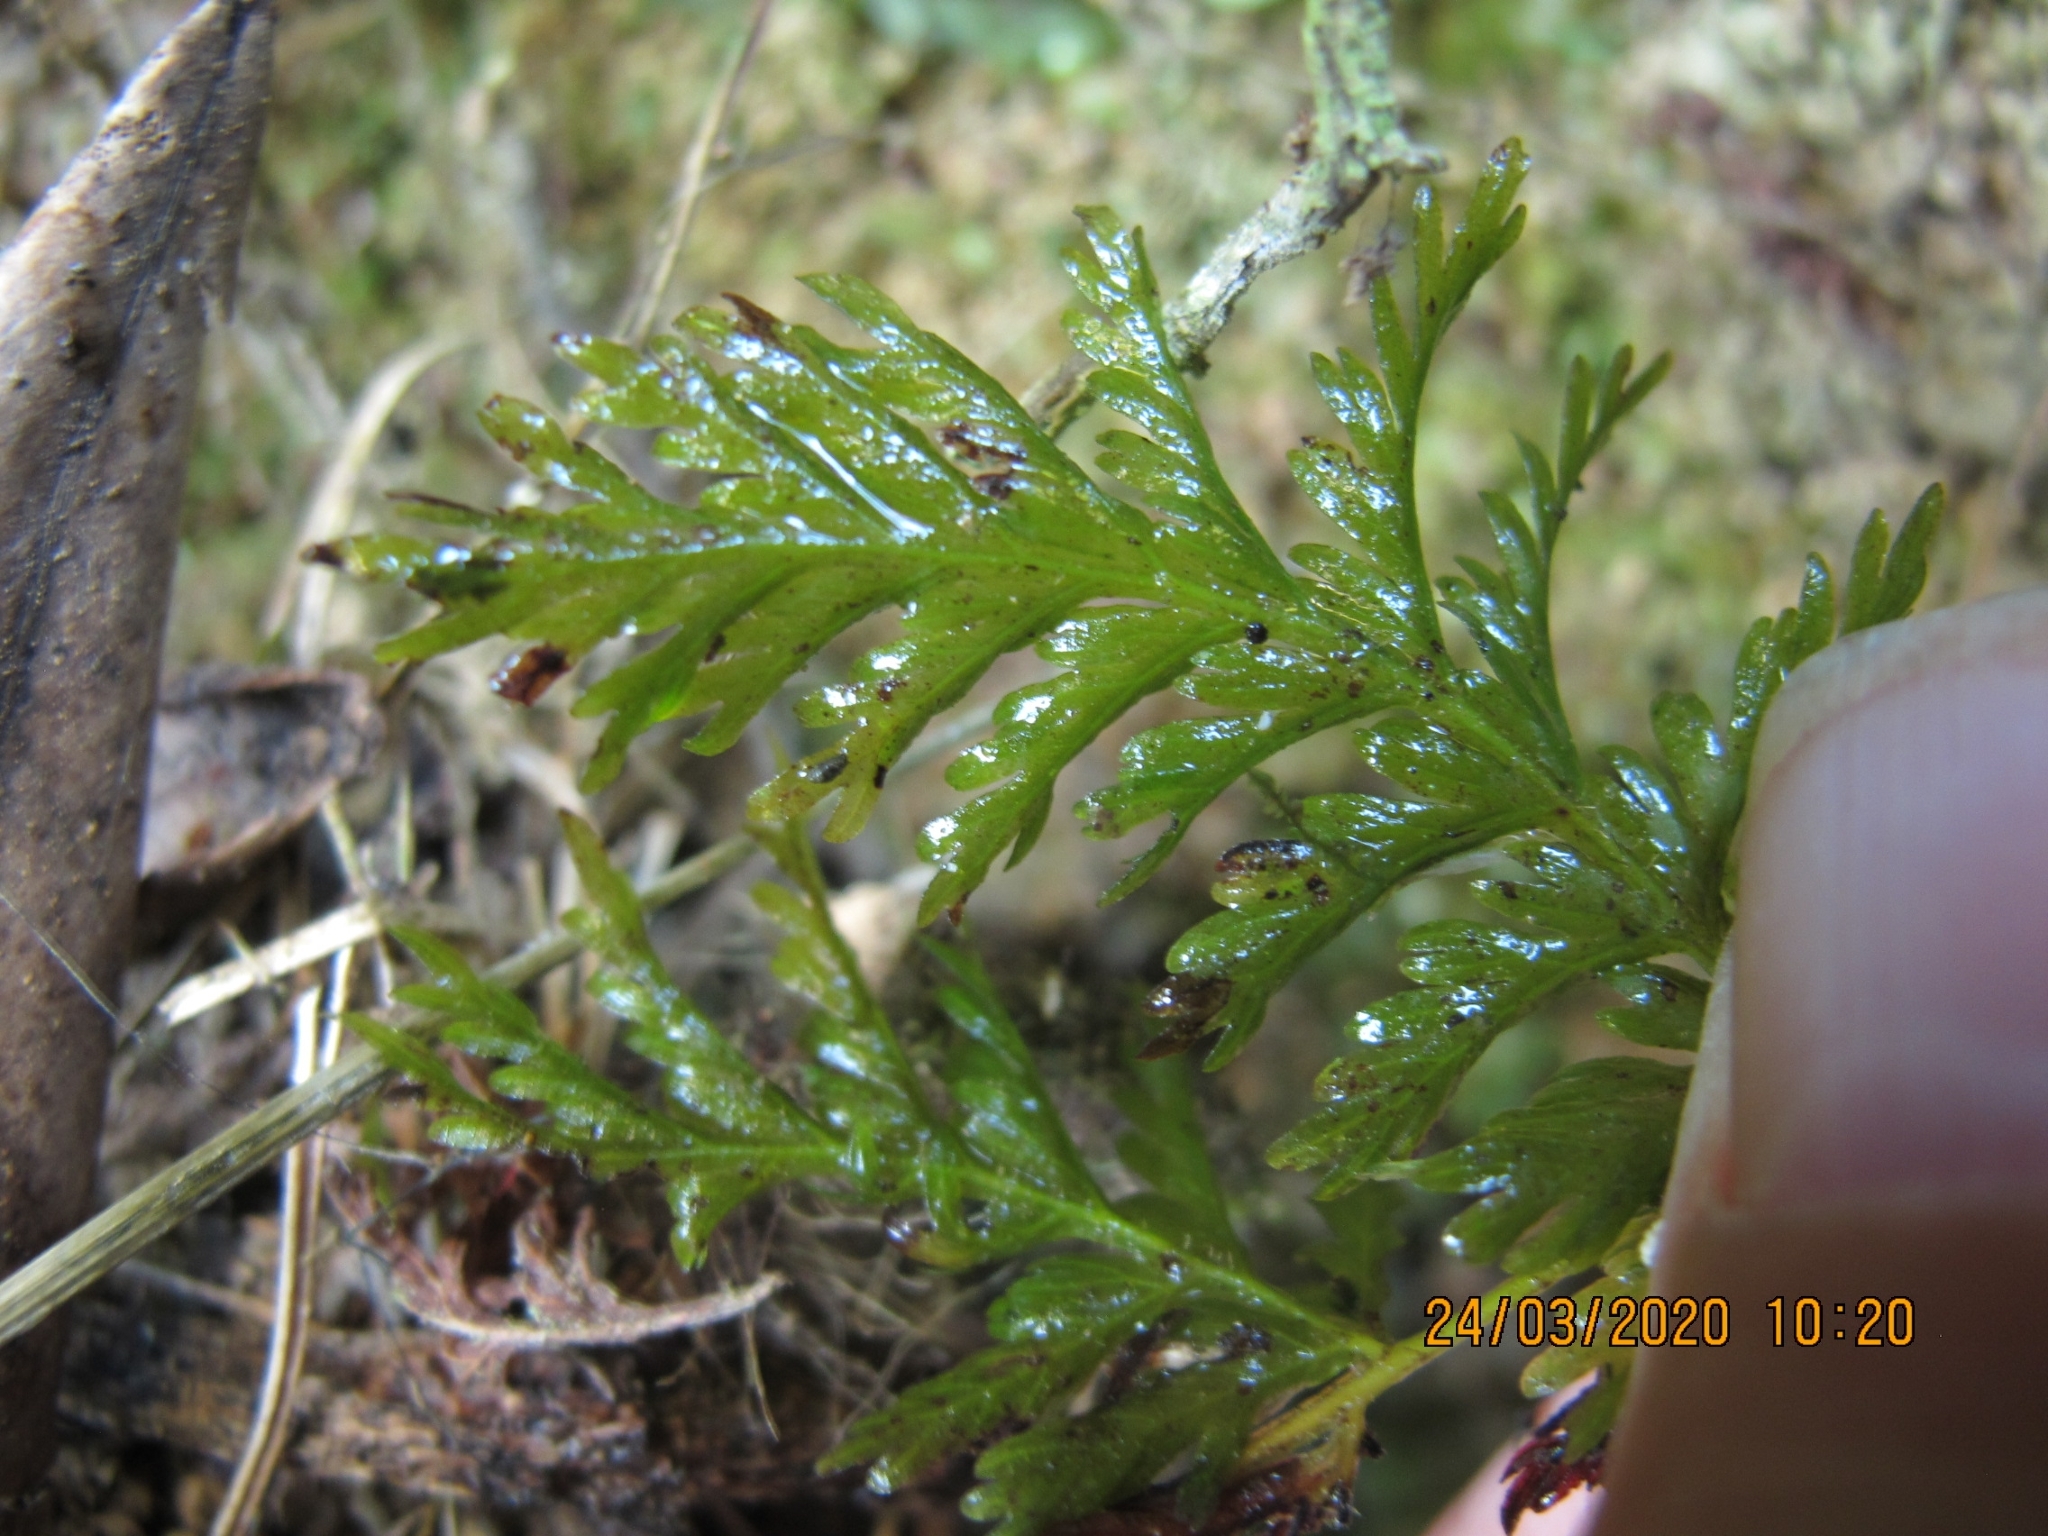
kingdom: Plantae
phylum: Tracheophyta
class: Polypodiopsida
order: Osmundales
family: Osmundaceae
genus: Leptopteris
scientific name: Leptopteris hymenophylloides
